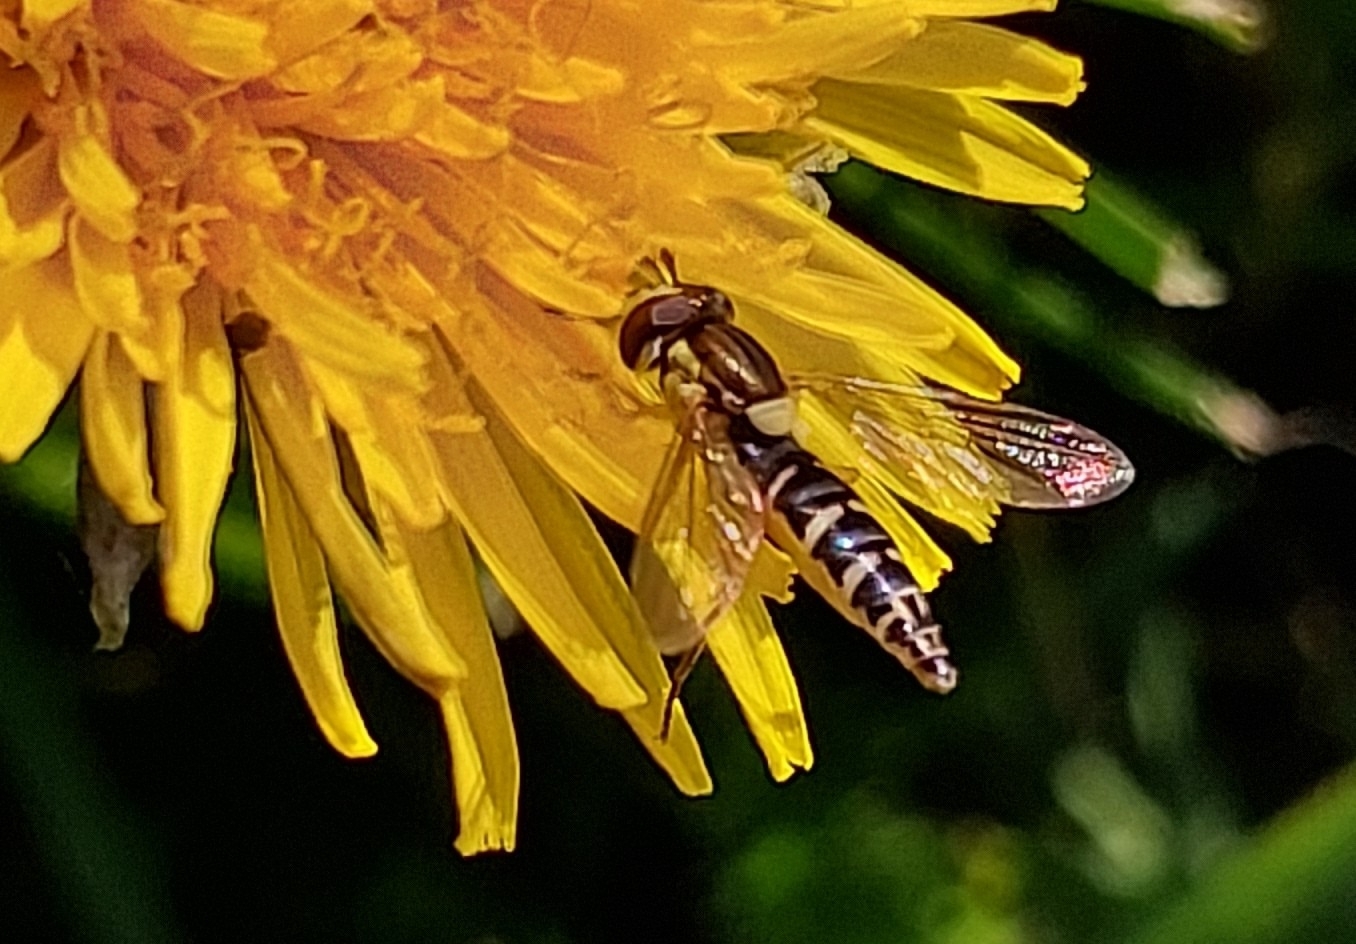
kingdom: Animalia
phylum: Arthropoda
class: Insecta
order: Diptera
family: Syrphidae
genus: Sphaerophoria
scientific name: Sphaerophoria
